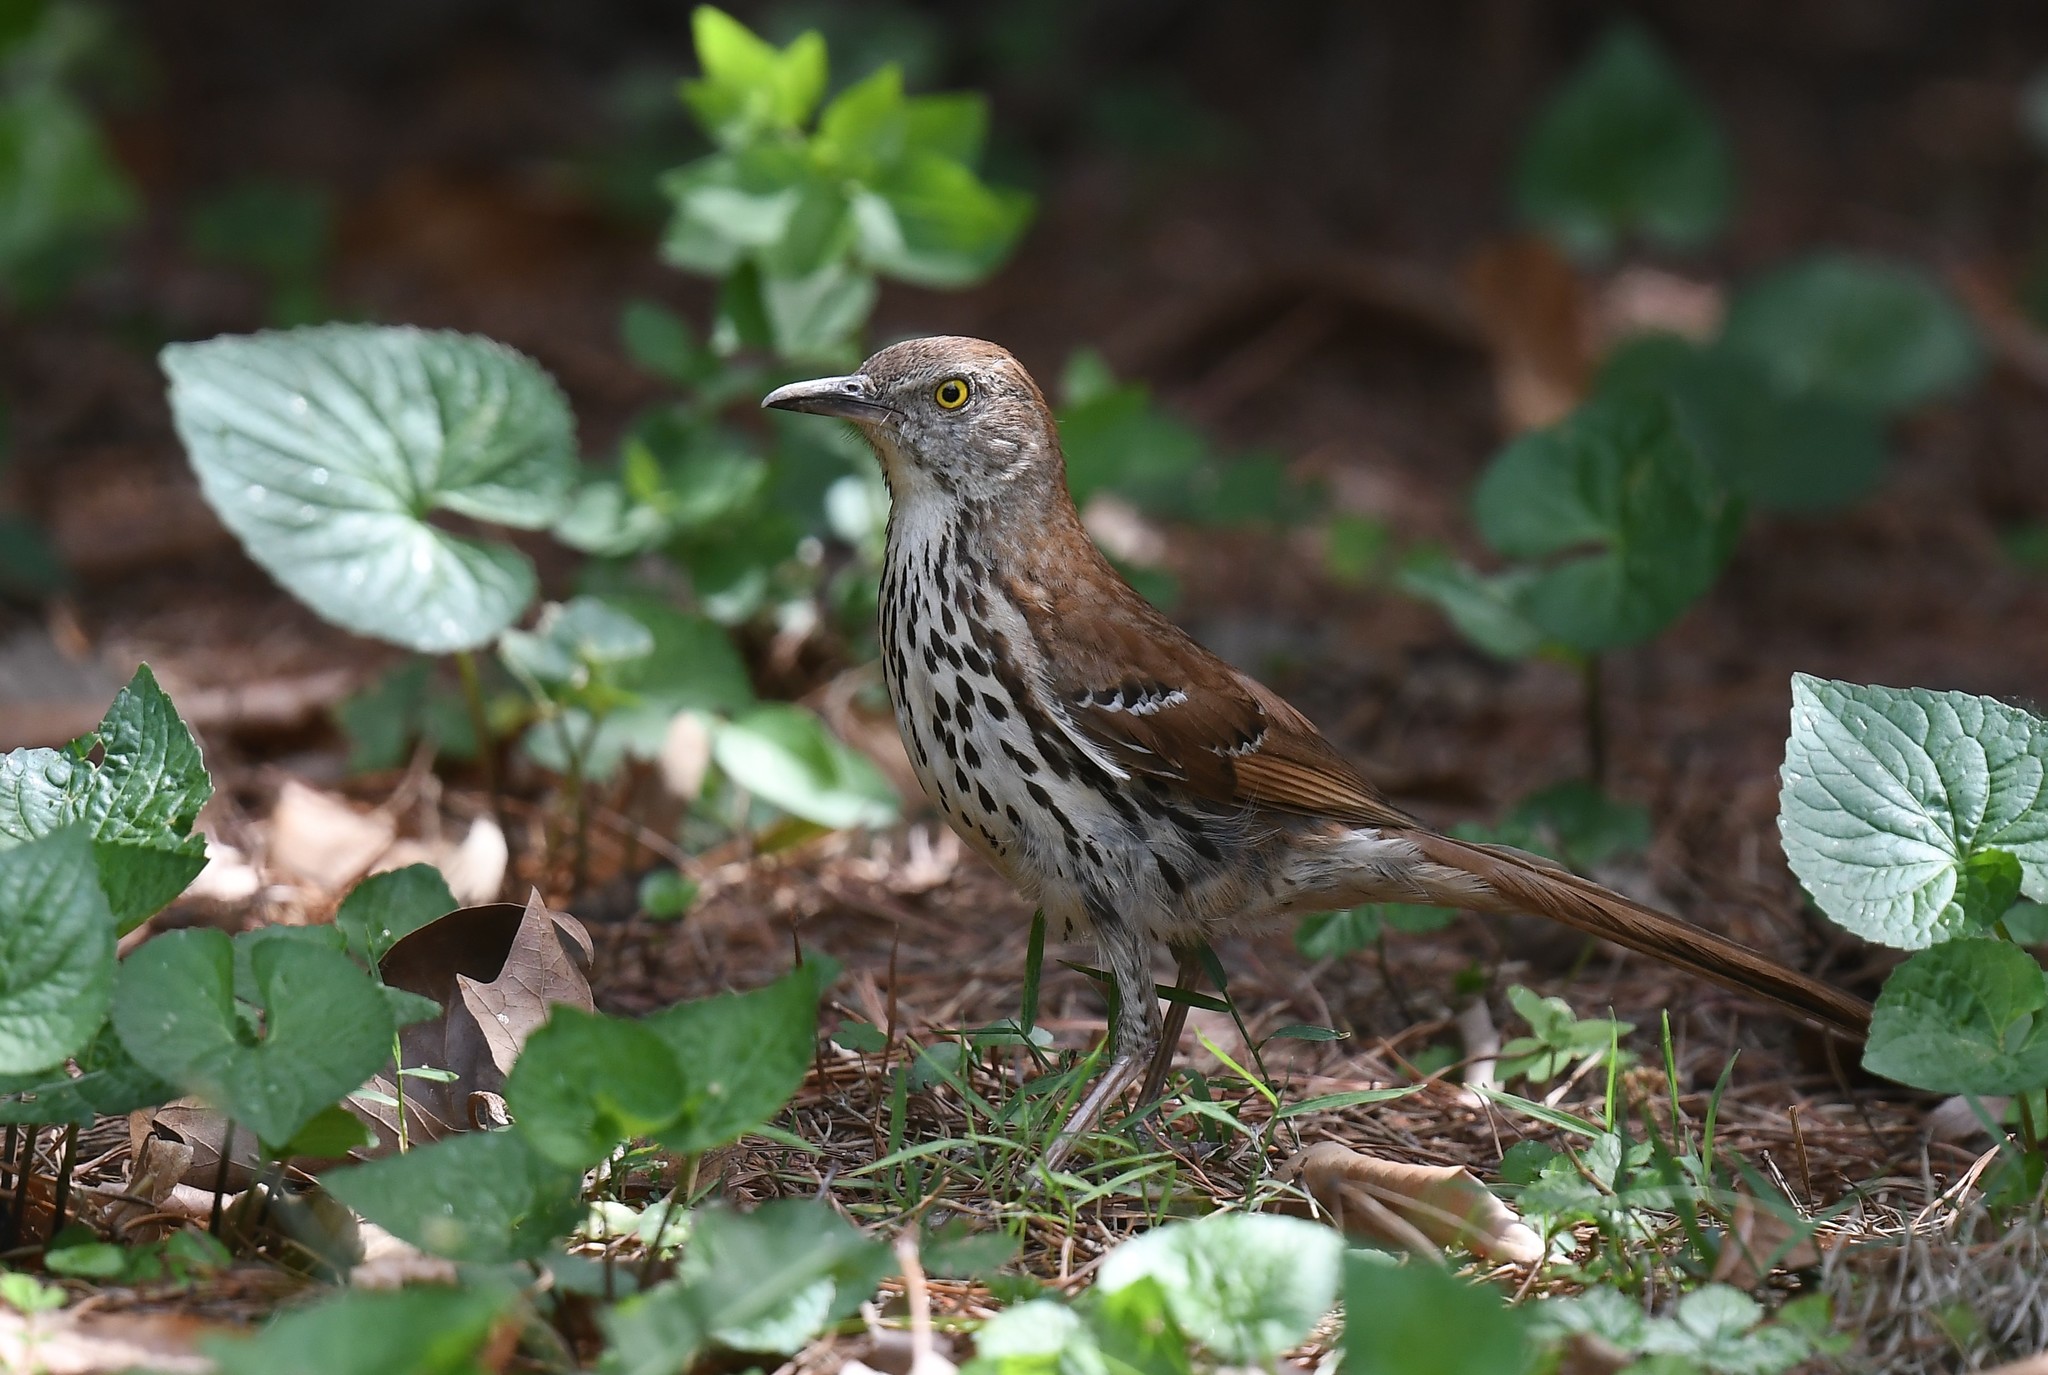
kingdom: Animalia
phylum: Chordata
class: Aves
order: Passeriformes
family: Mimidae
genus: Toxostoma
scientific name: Toxostoma rufum
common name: Brown thrasher
